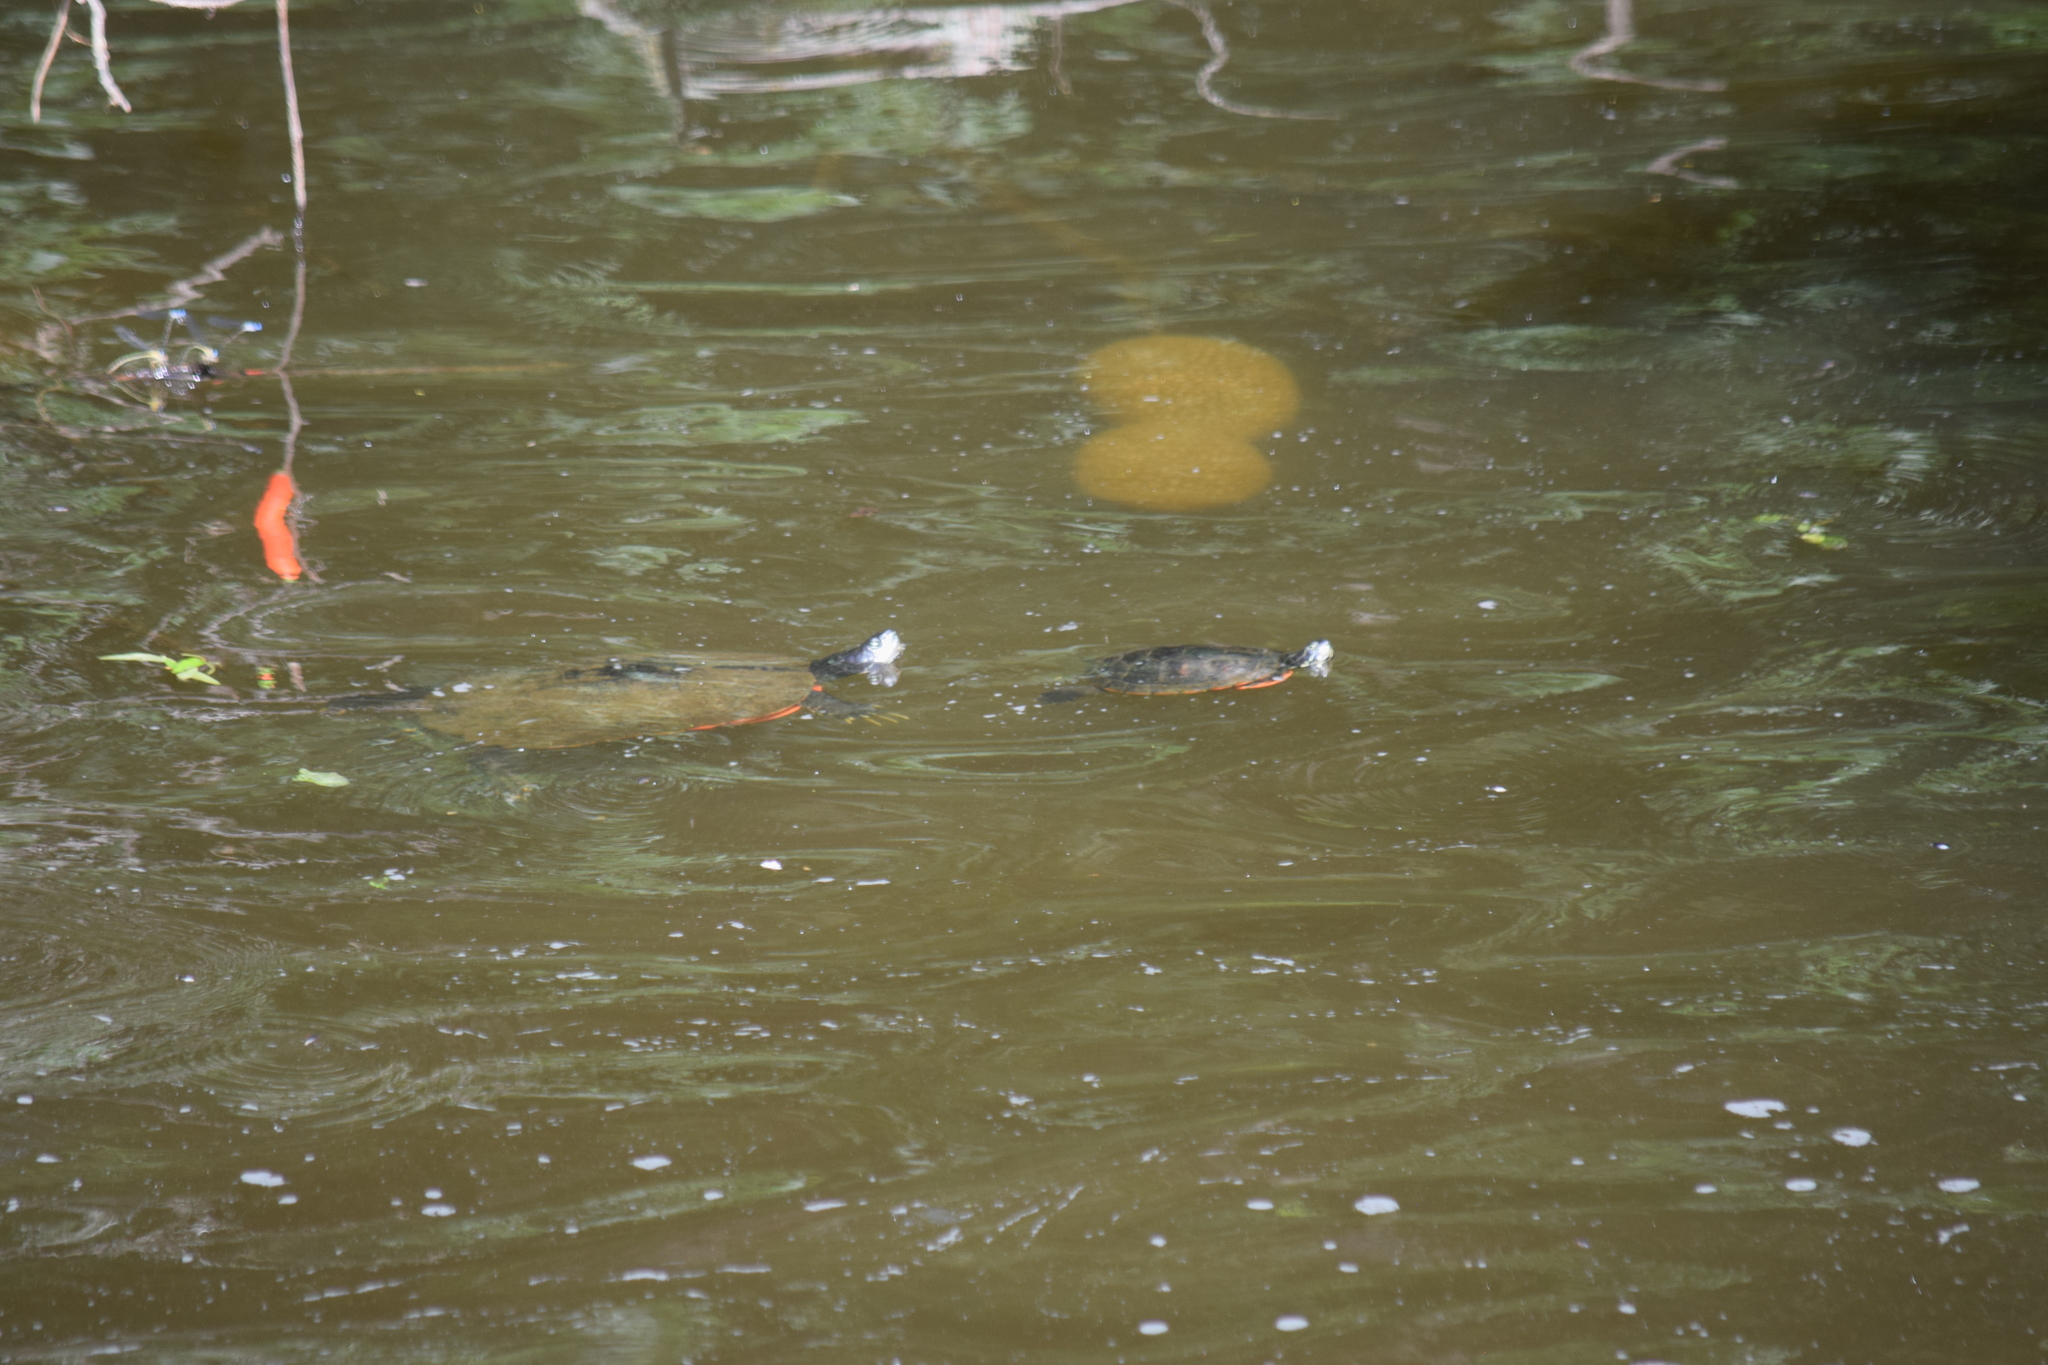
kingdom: Animalia
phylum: Chordata
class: Testudines
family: Emydidae
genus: Pseudemys
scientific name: Pseudemys rubriventris
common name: American red-bellied turtle
